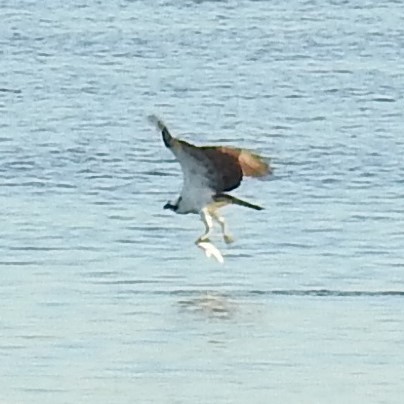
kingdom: Animalia
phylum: Chordata
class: Aves
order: Accipitriformes
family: Pandionidae
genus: Pandion
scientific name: Pandion haliaetus
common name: Osprey
